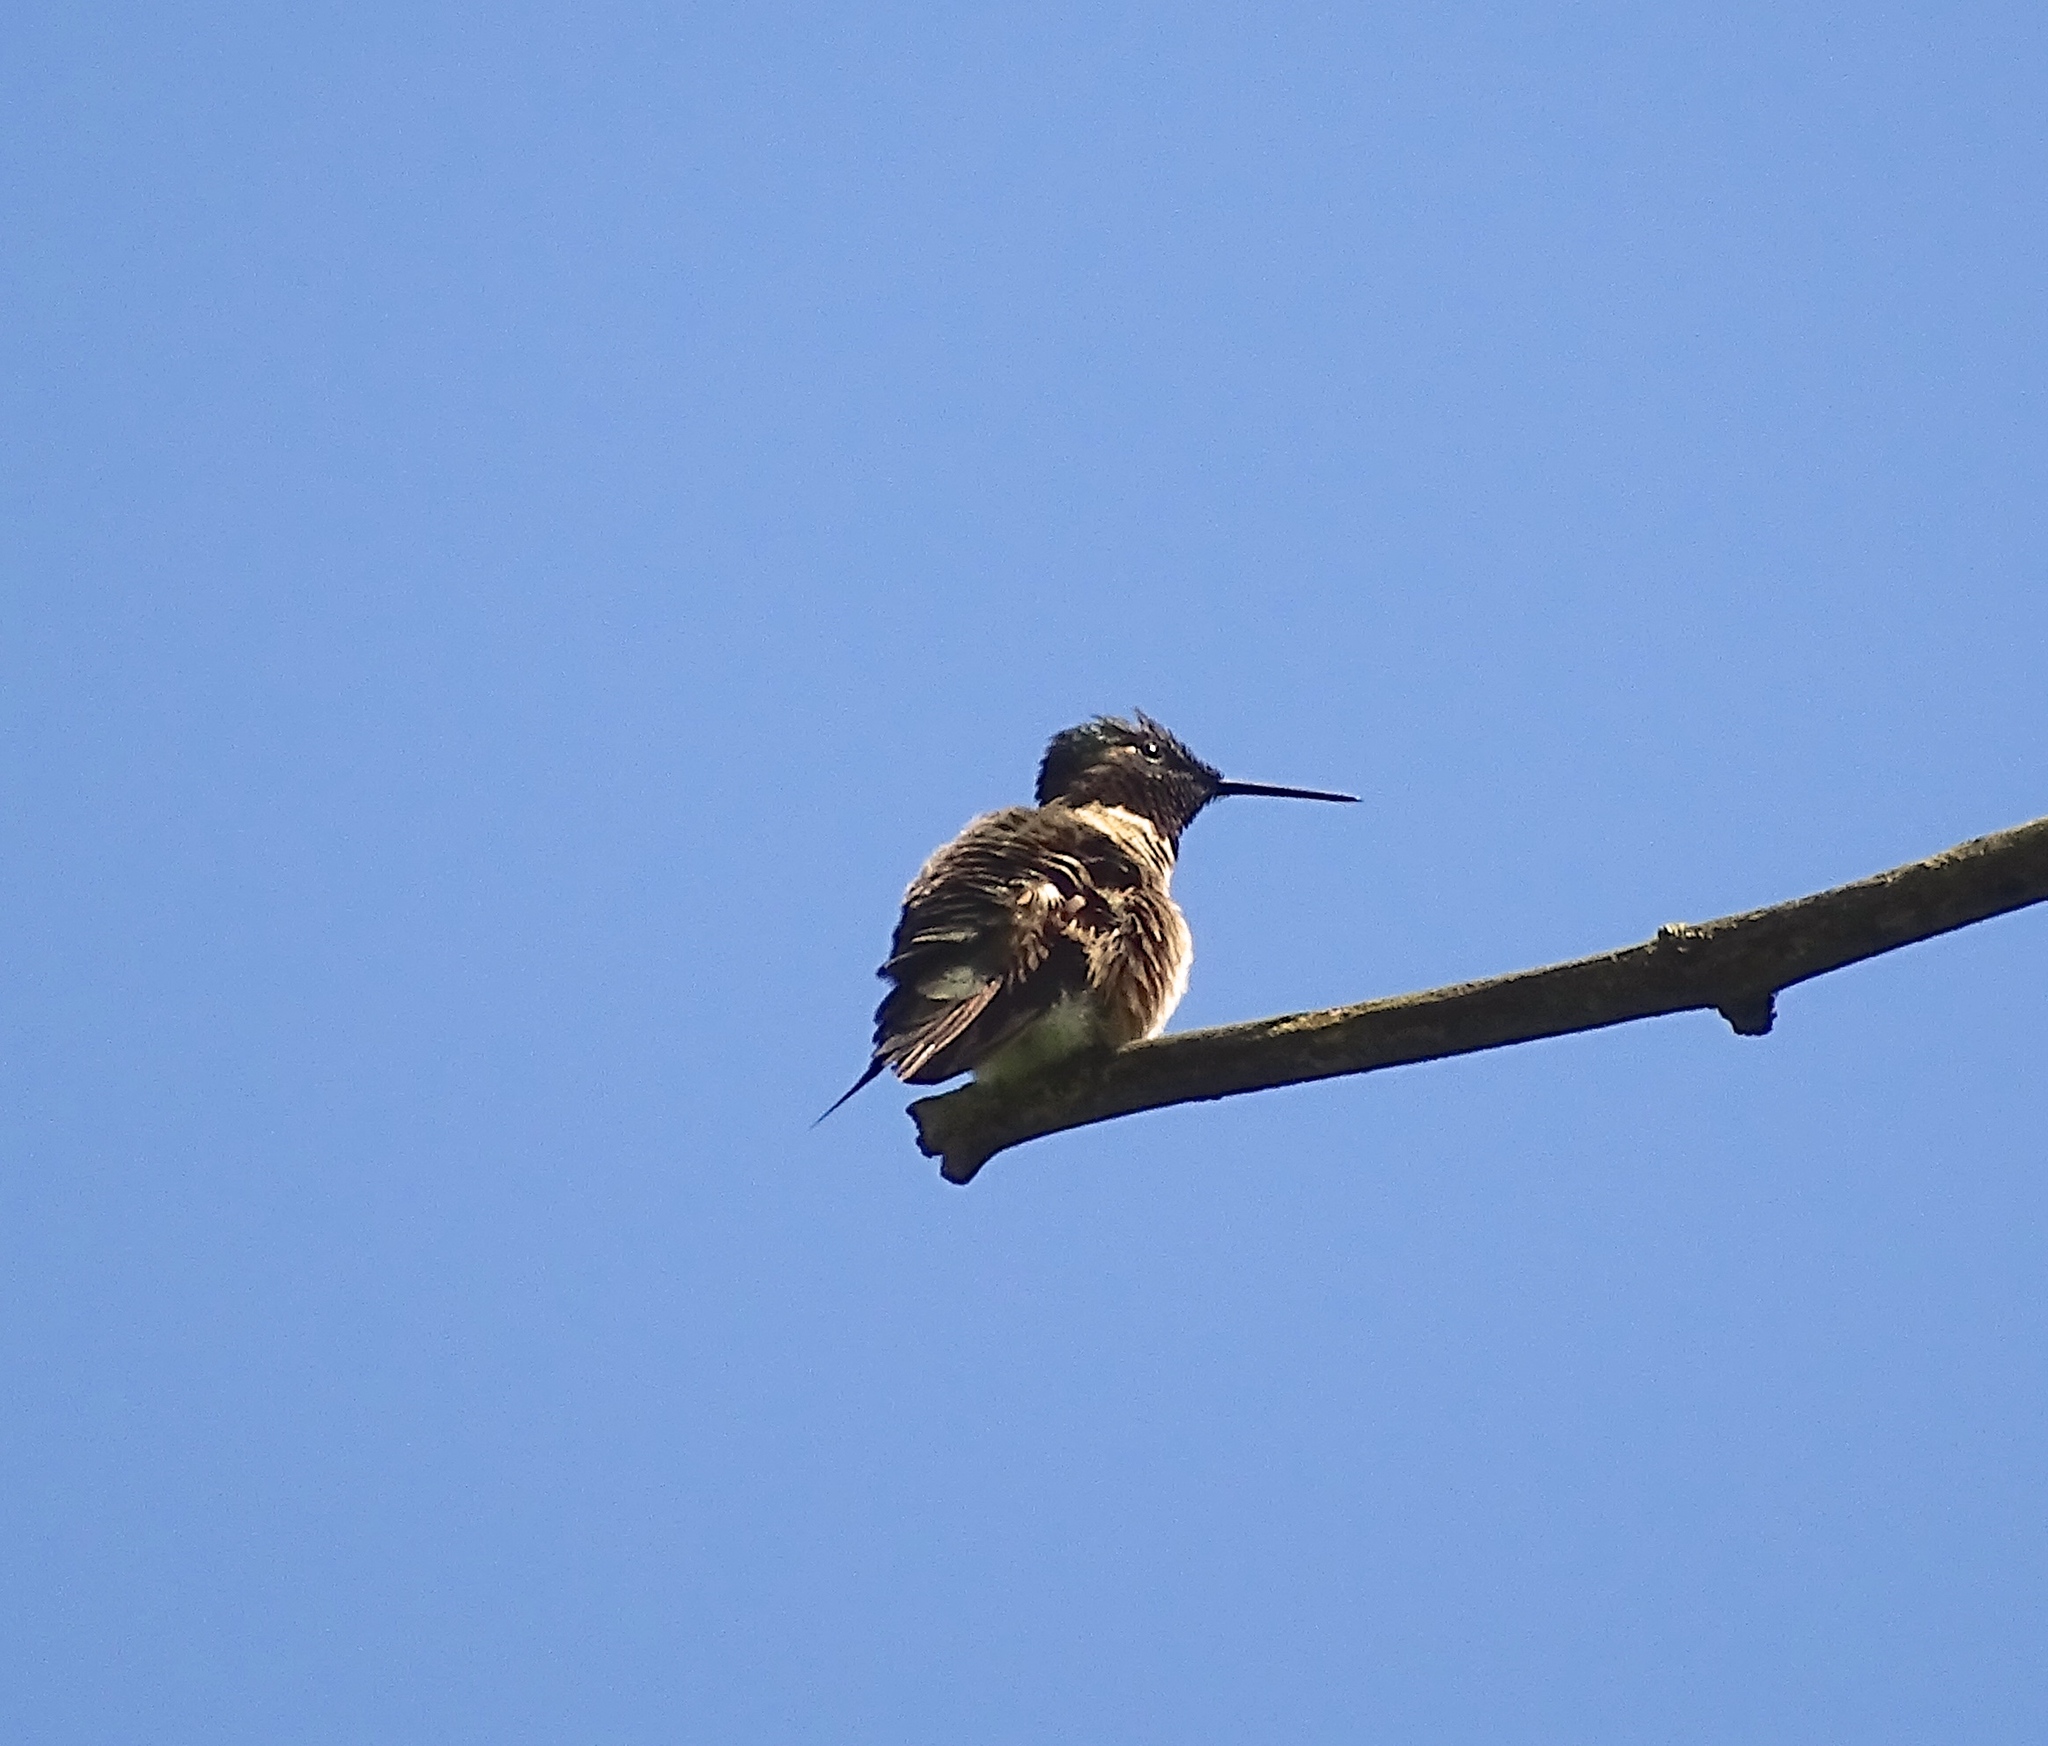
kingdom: Animalia
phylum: Chordata
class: Aves
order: Apodiformes
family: Trochilidae
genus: Archilochus
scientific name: Archilochus colubris
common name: Ruby-throated hummingbird
